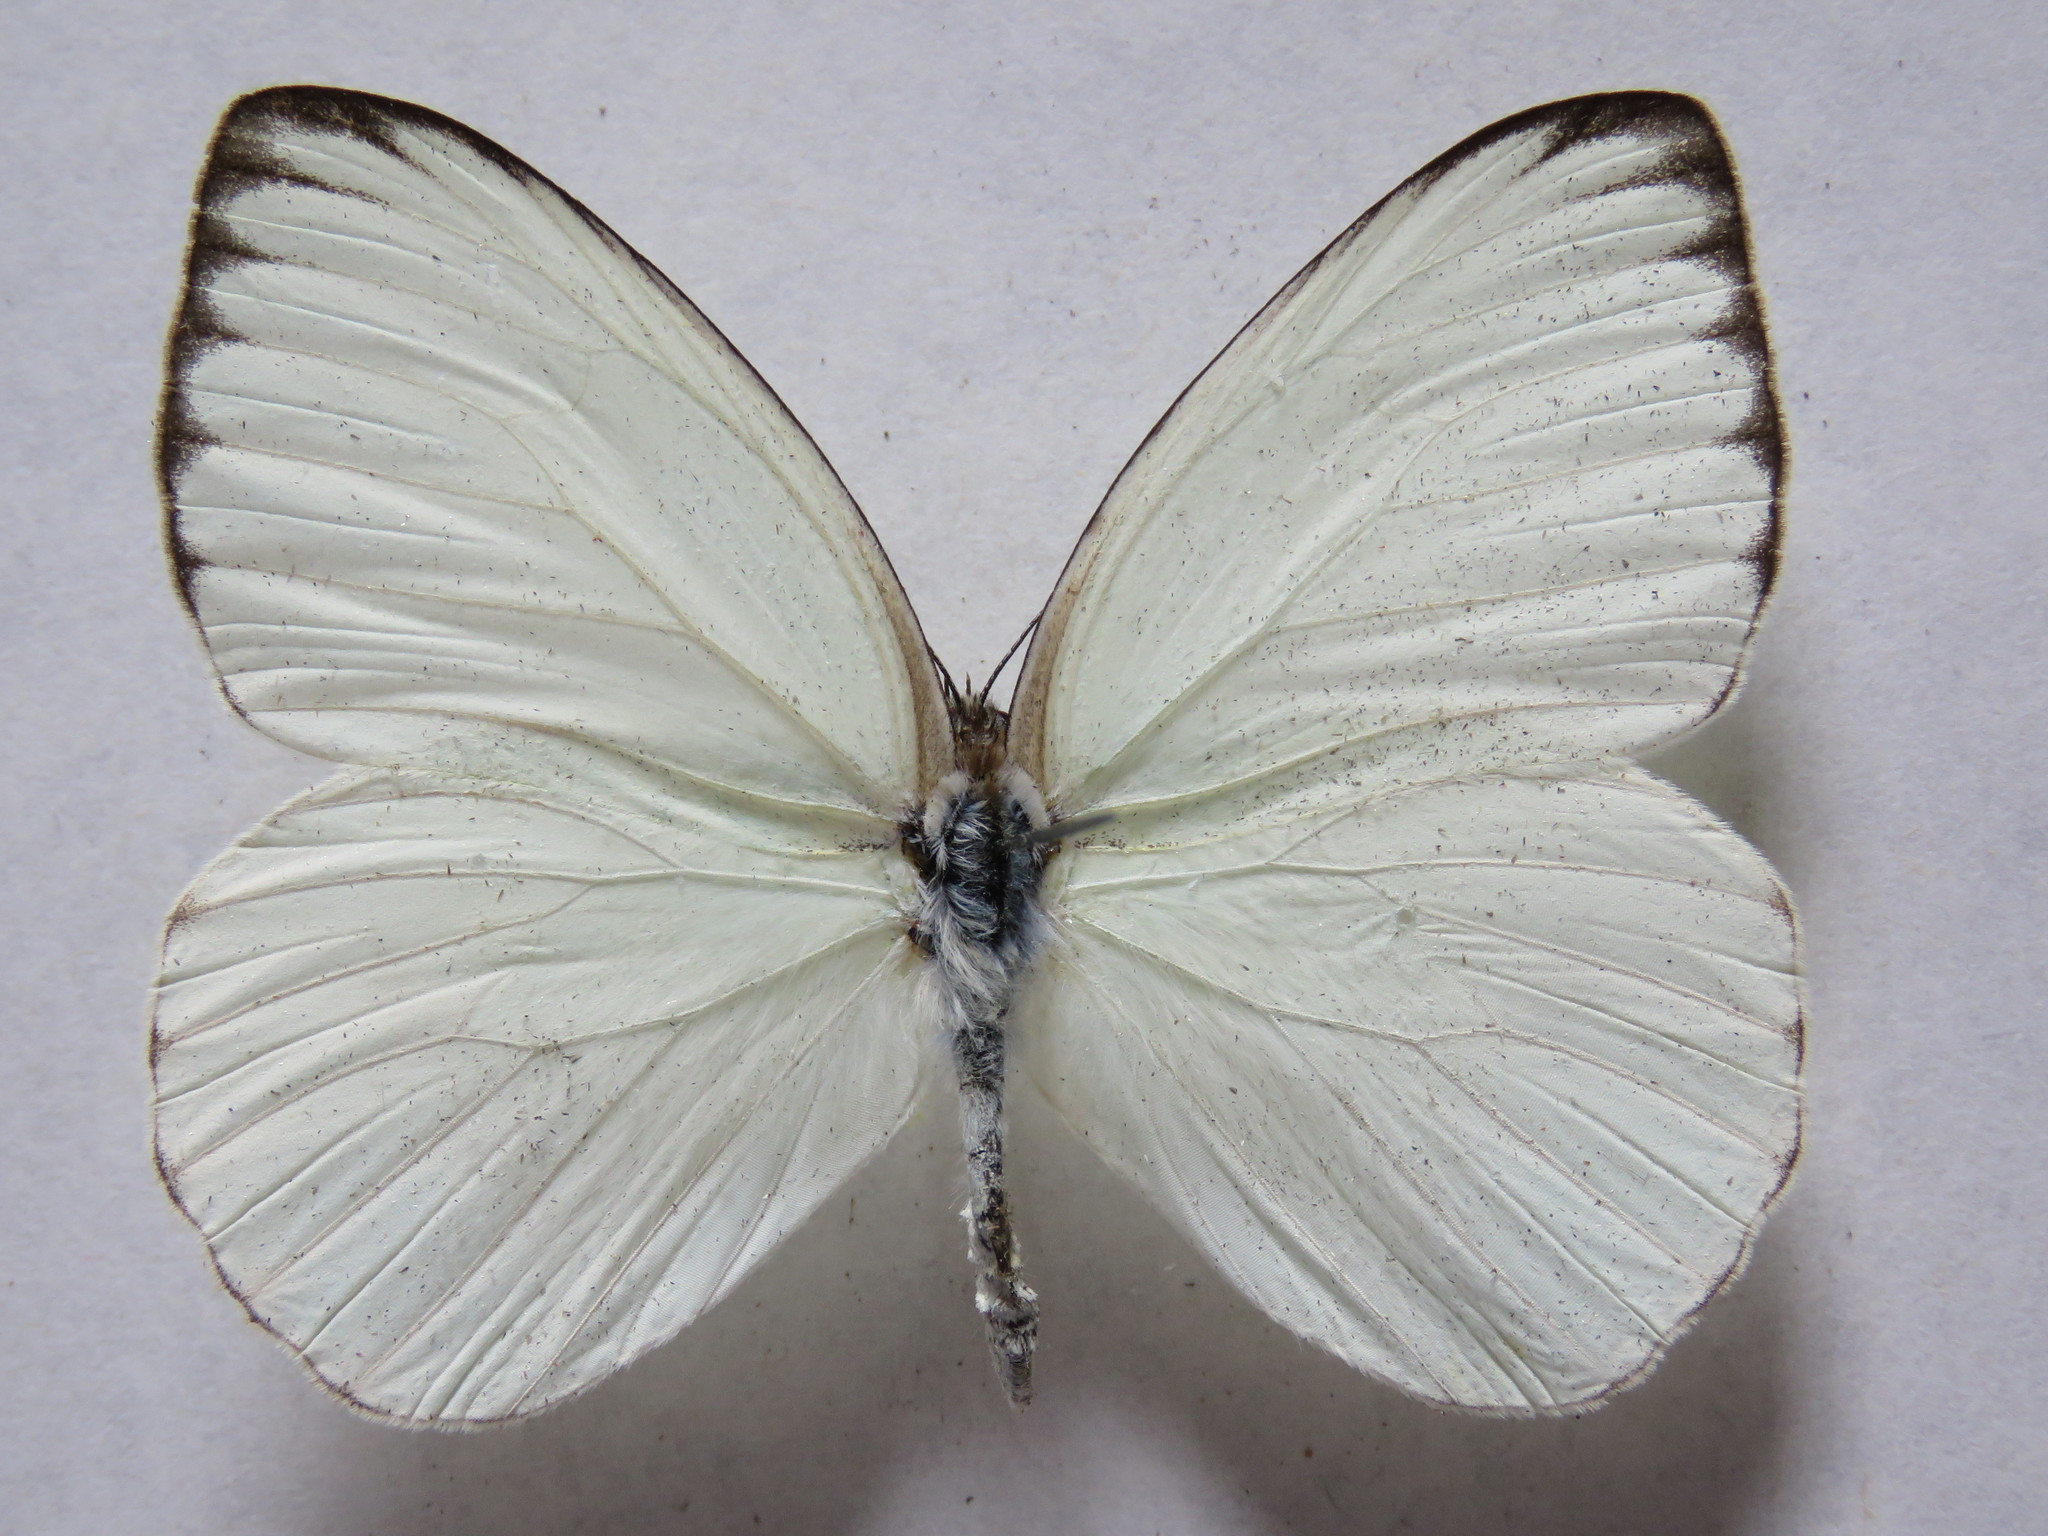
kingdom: Animalia
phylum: Arthropoda
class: Insecta
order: Lepidoptera
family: Pieridae
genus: Ascia
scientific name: Ascia monuste
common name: Great southern white
